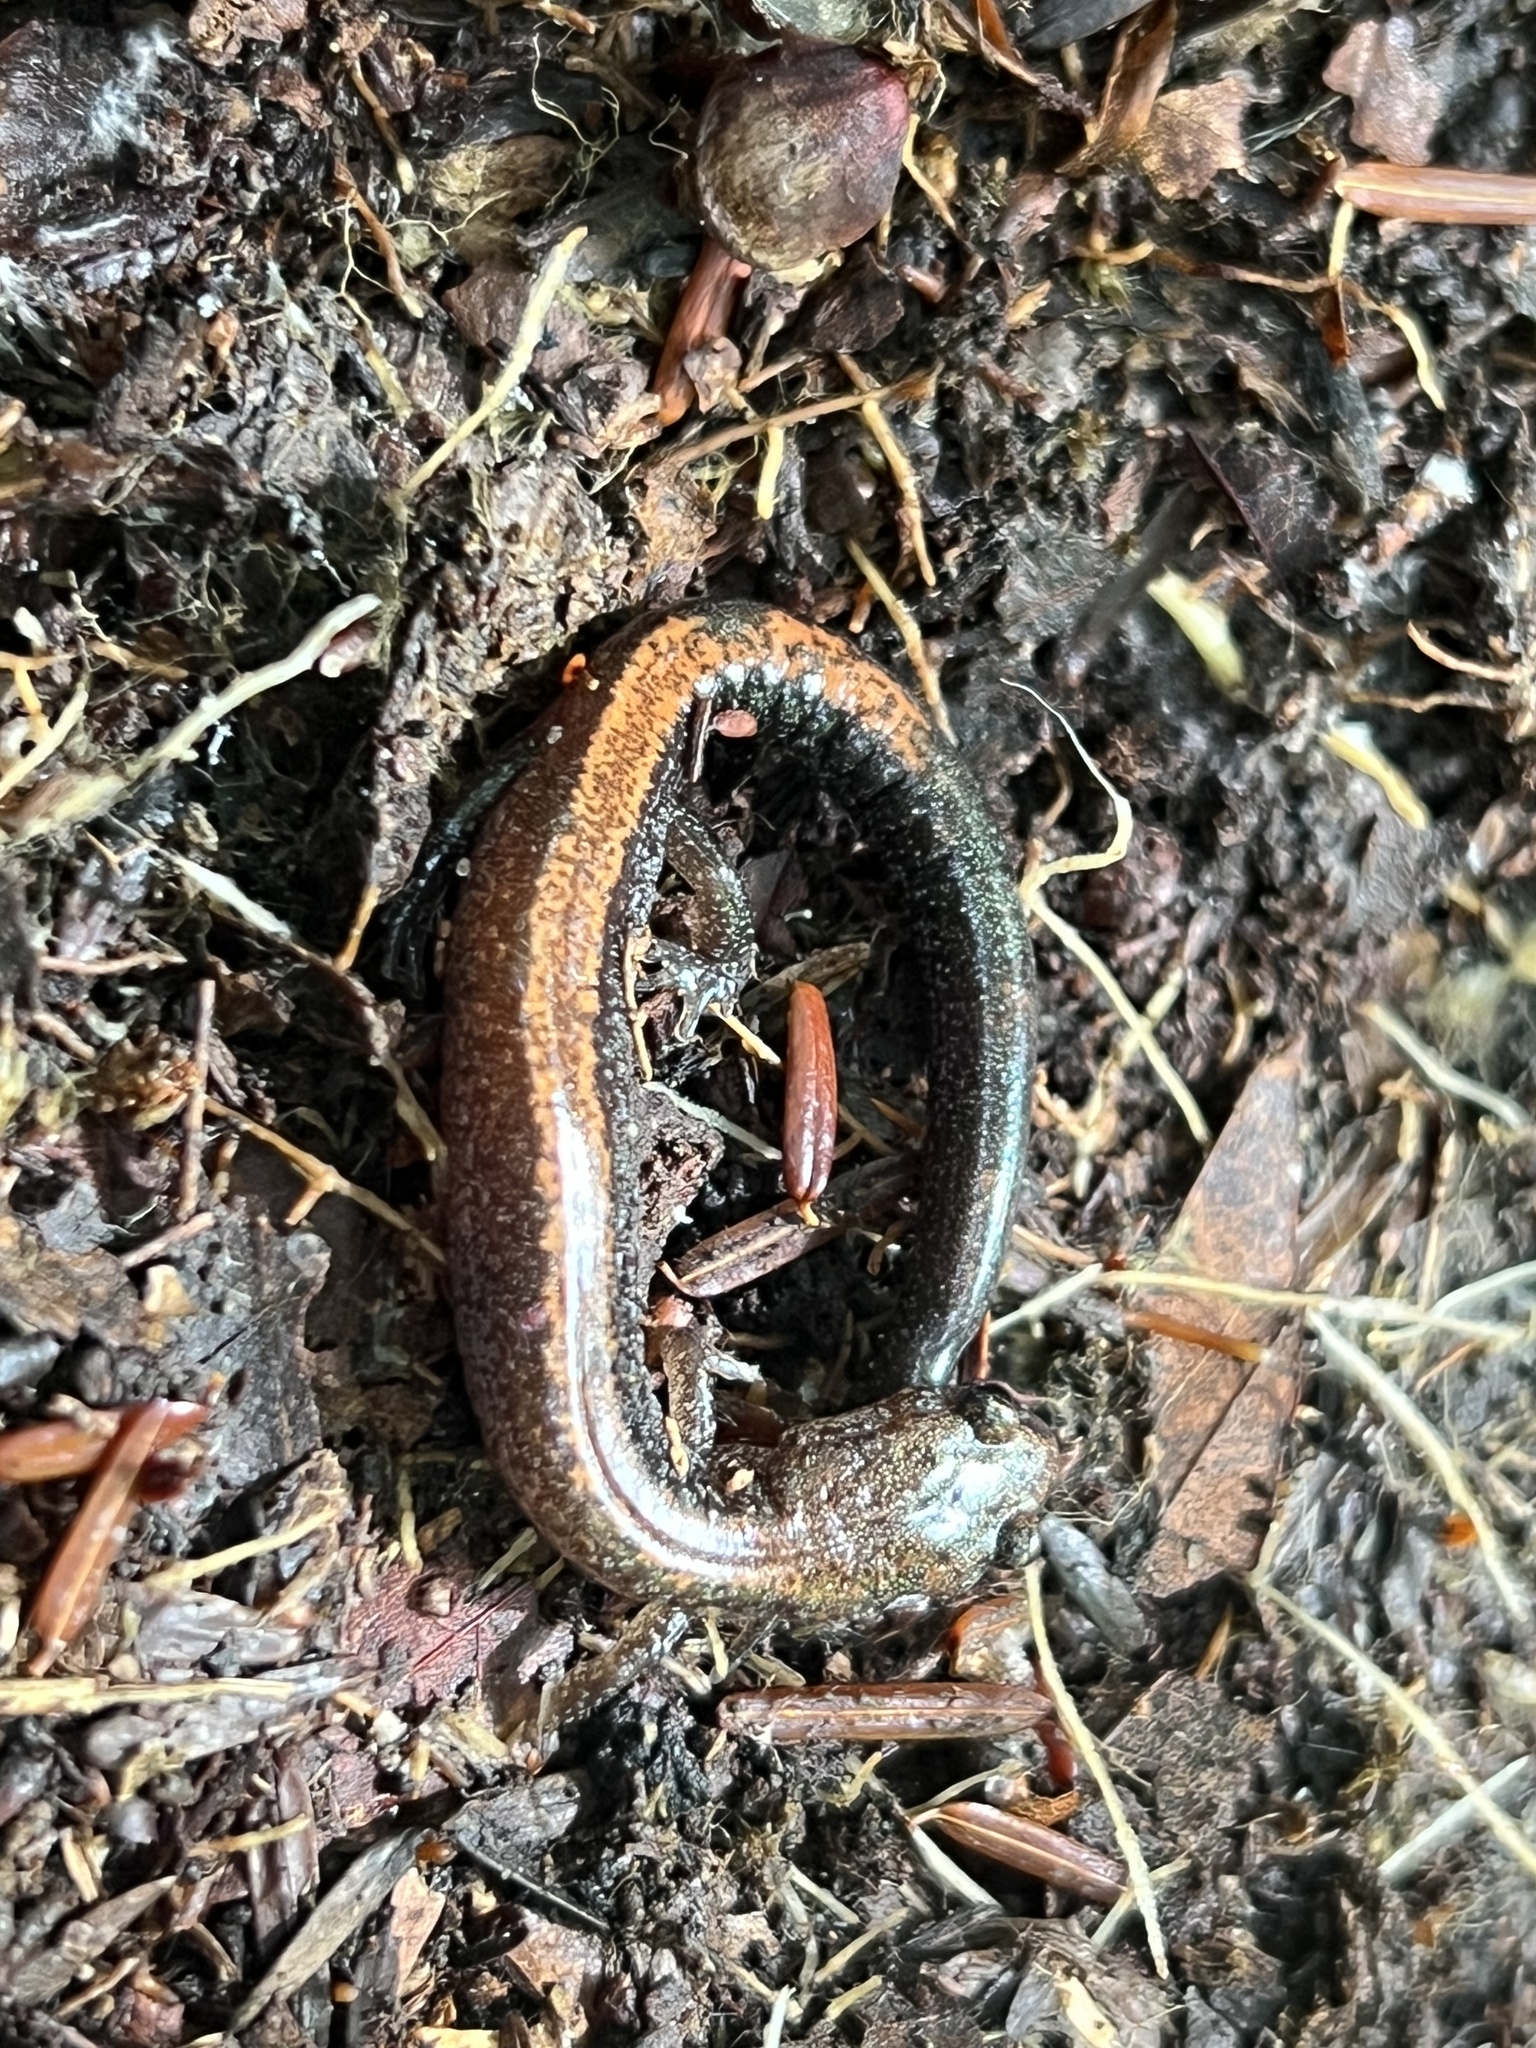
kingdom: Animalia
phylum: Chordata
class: Amphibia
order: Caudata
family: Plethodontidae
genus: Plethodon
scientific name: Plethodon cinereus
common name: Redback salamander
